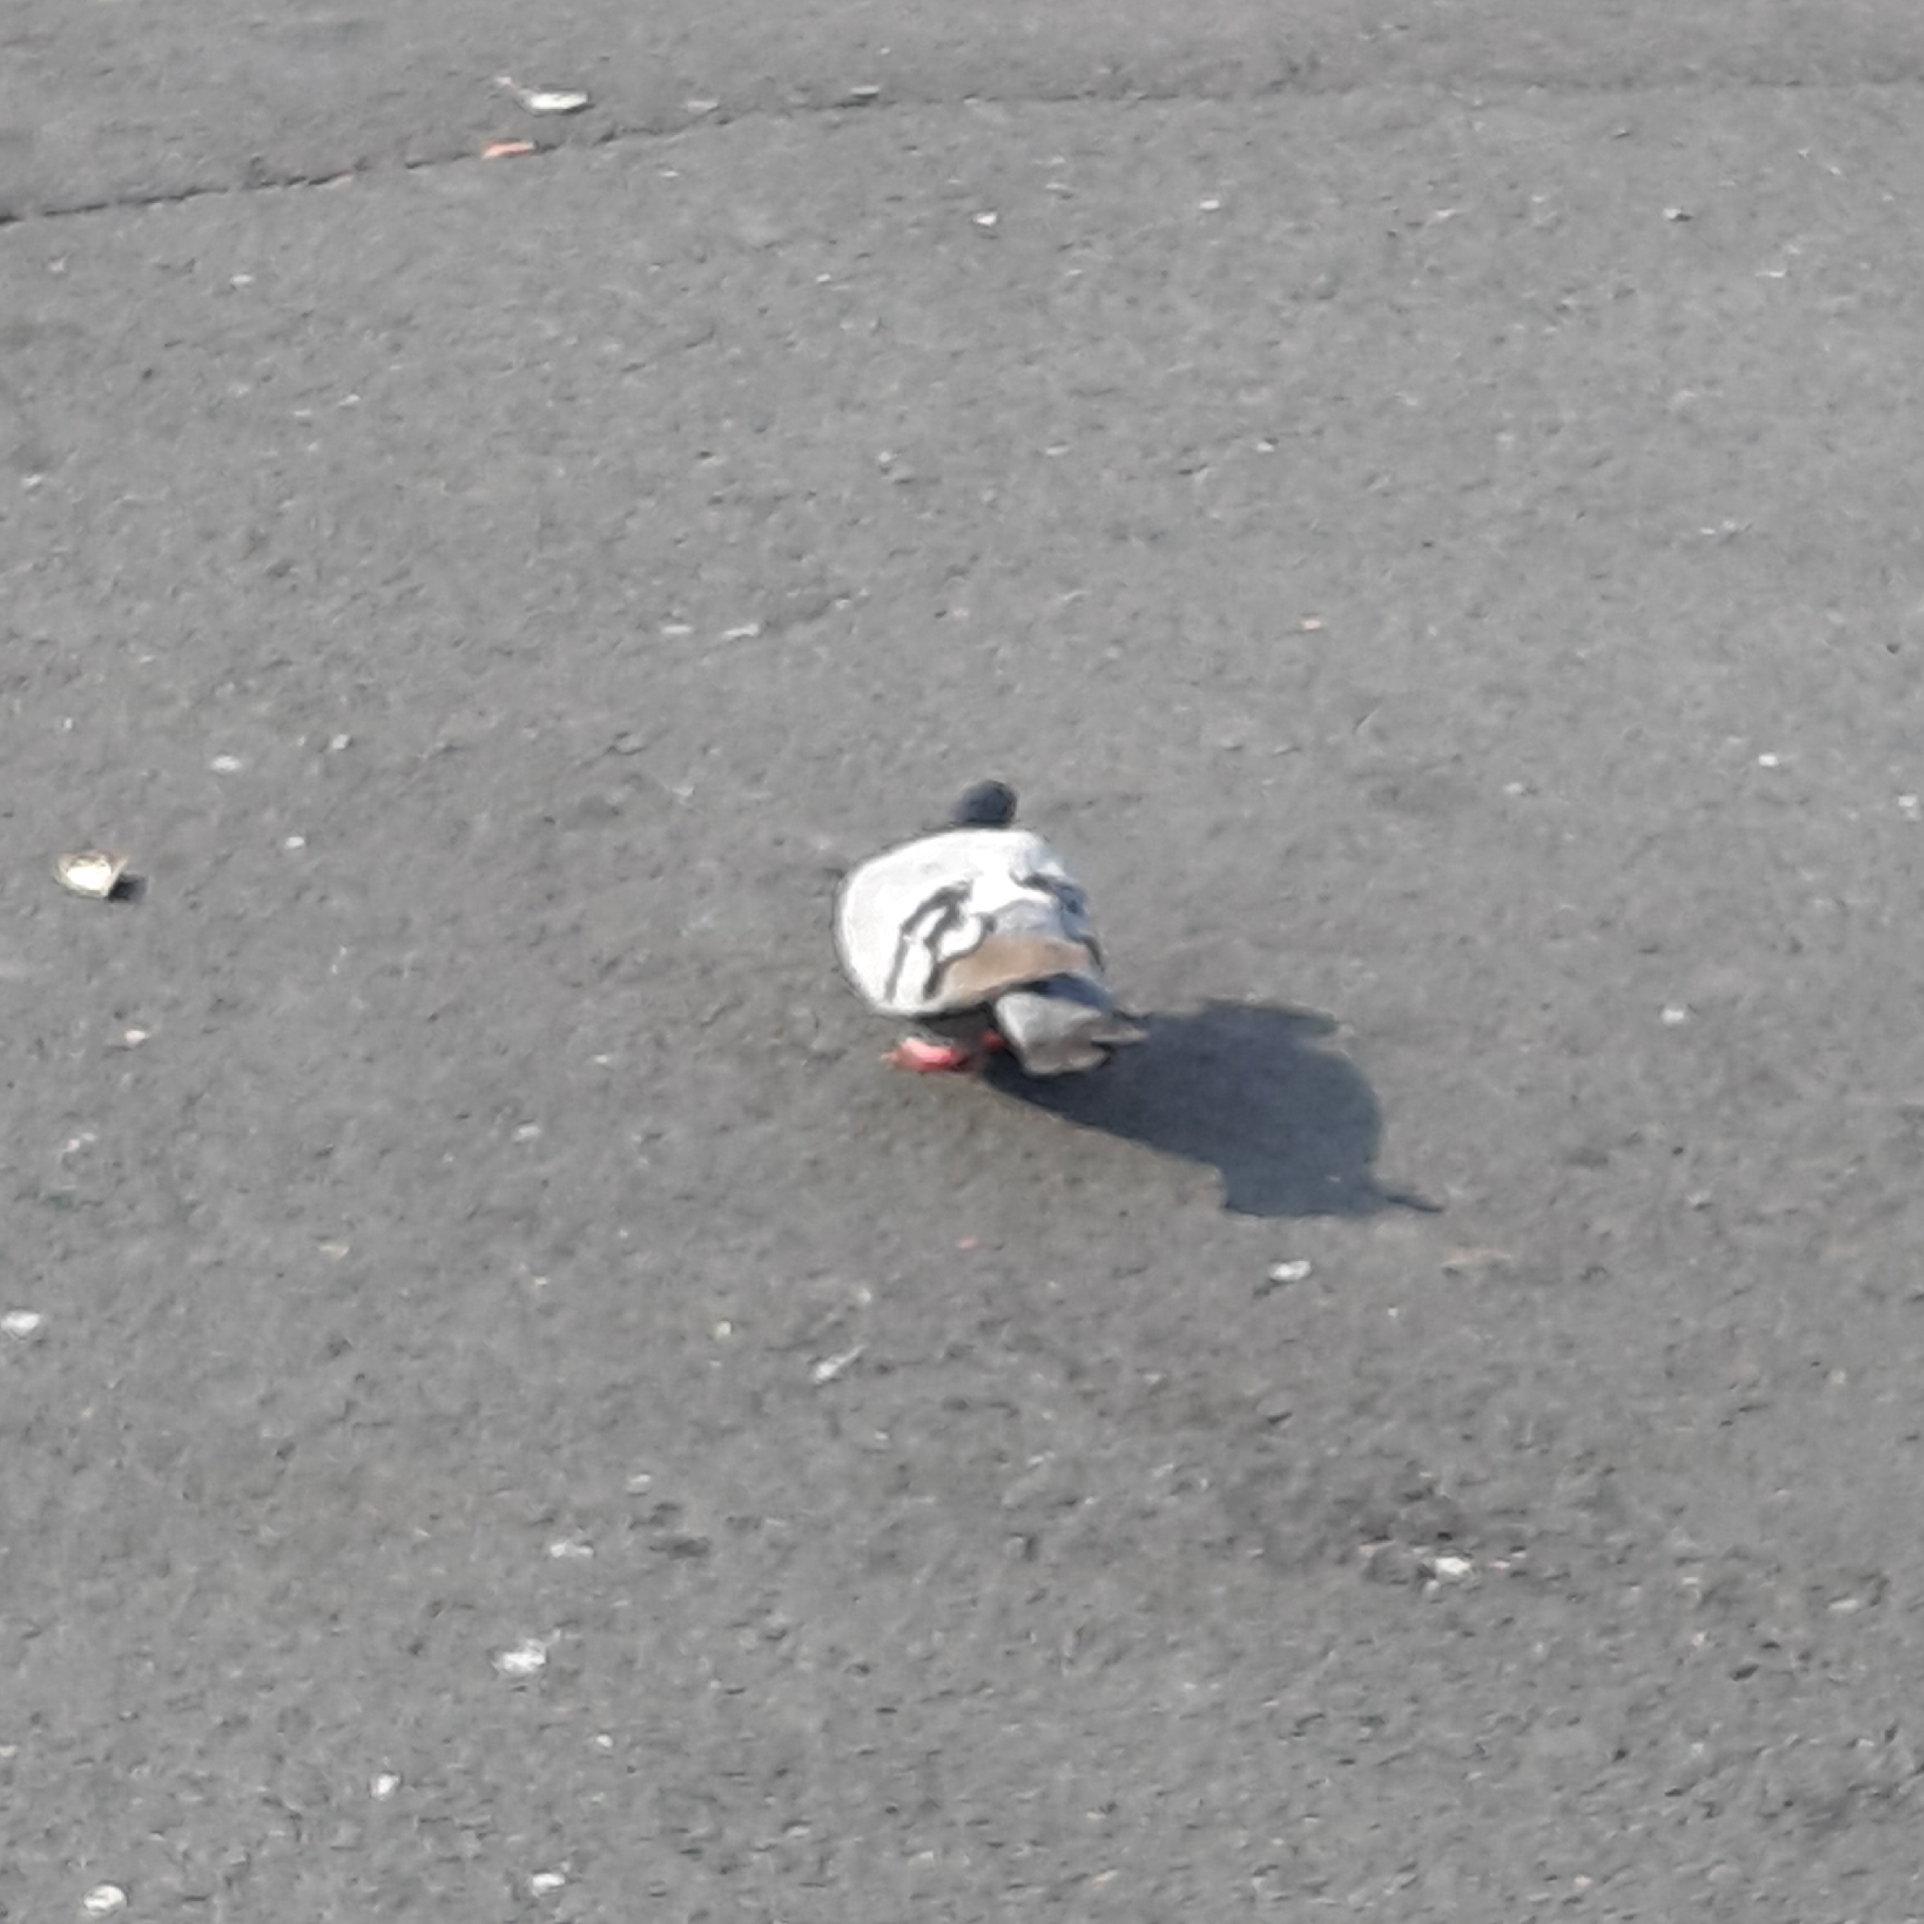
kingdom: Animalia
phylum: Chordata
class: Aves
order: Columbiformes
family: Columbidae
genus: Columba
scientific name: Columba livia
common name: Rock pigeon
